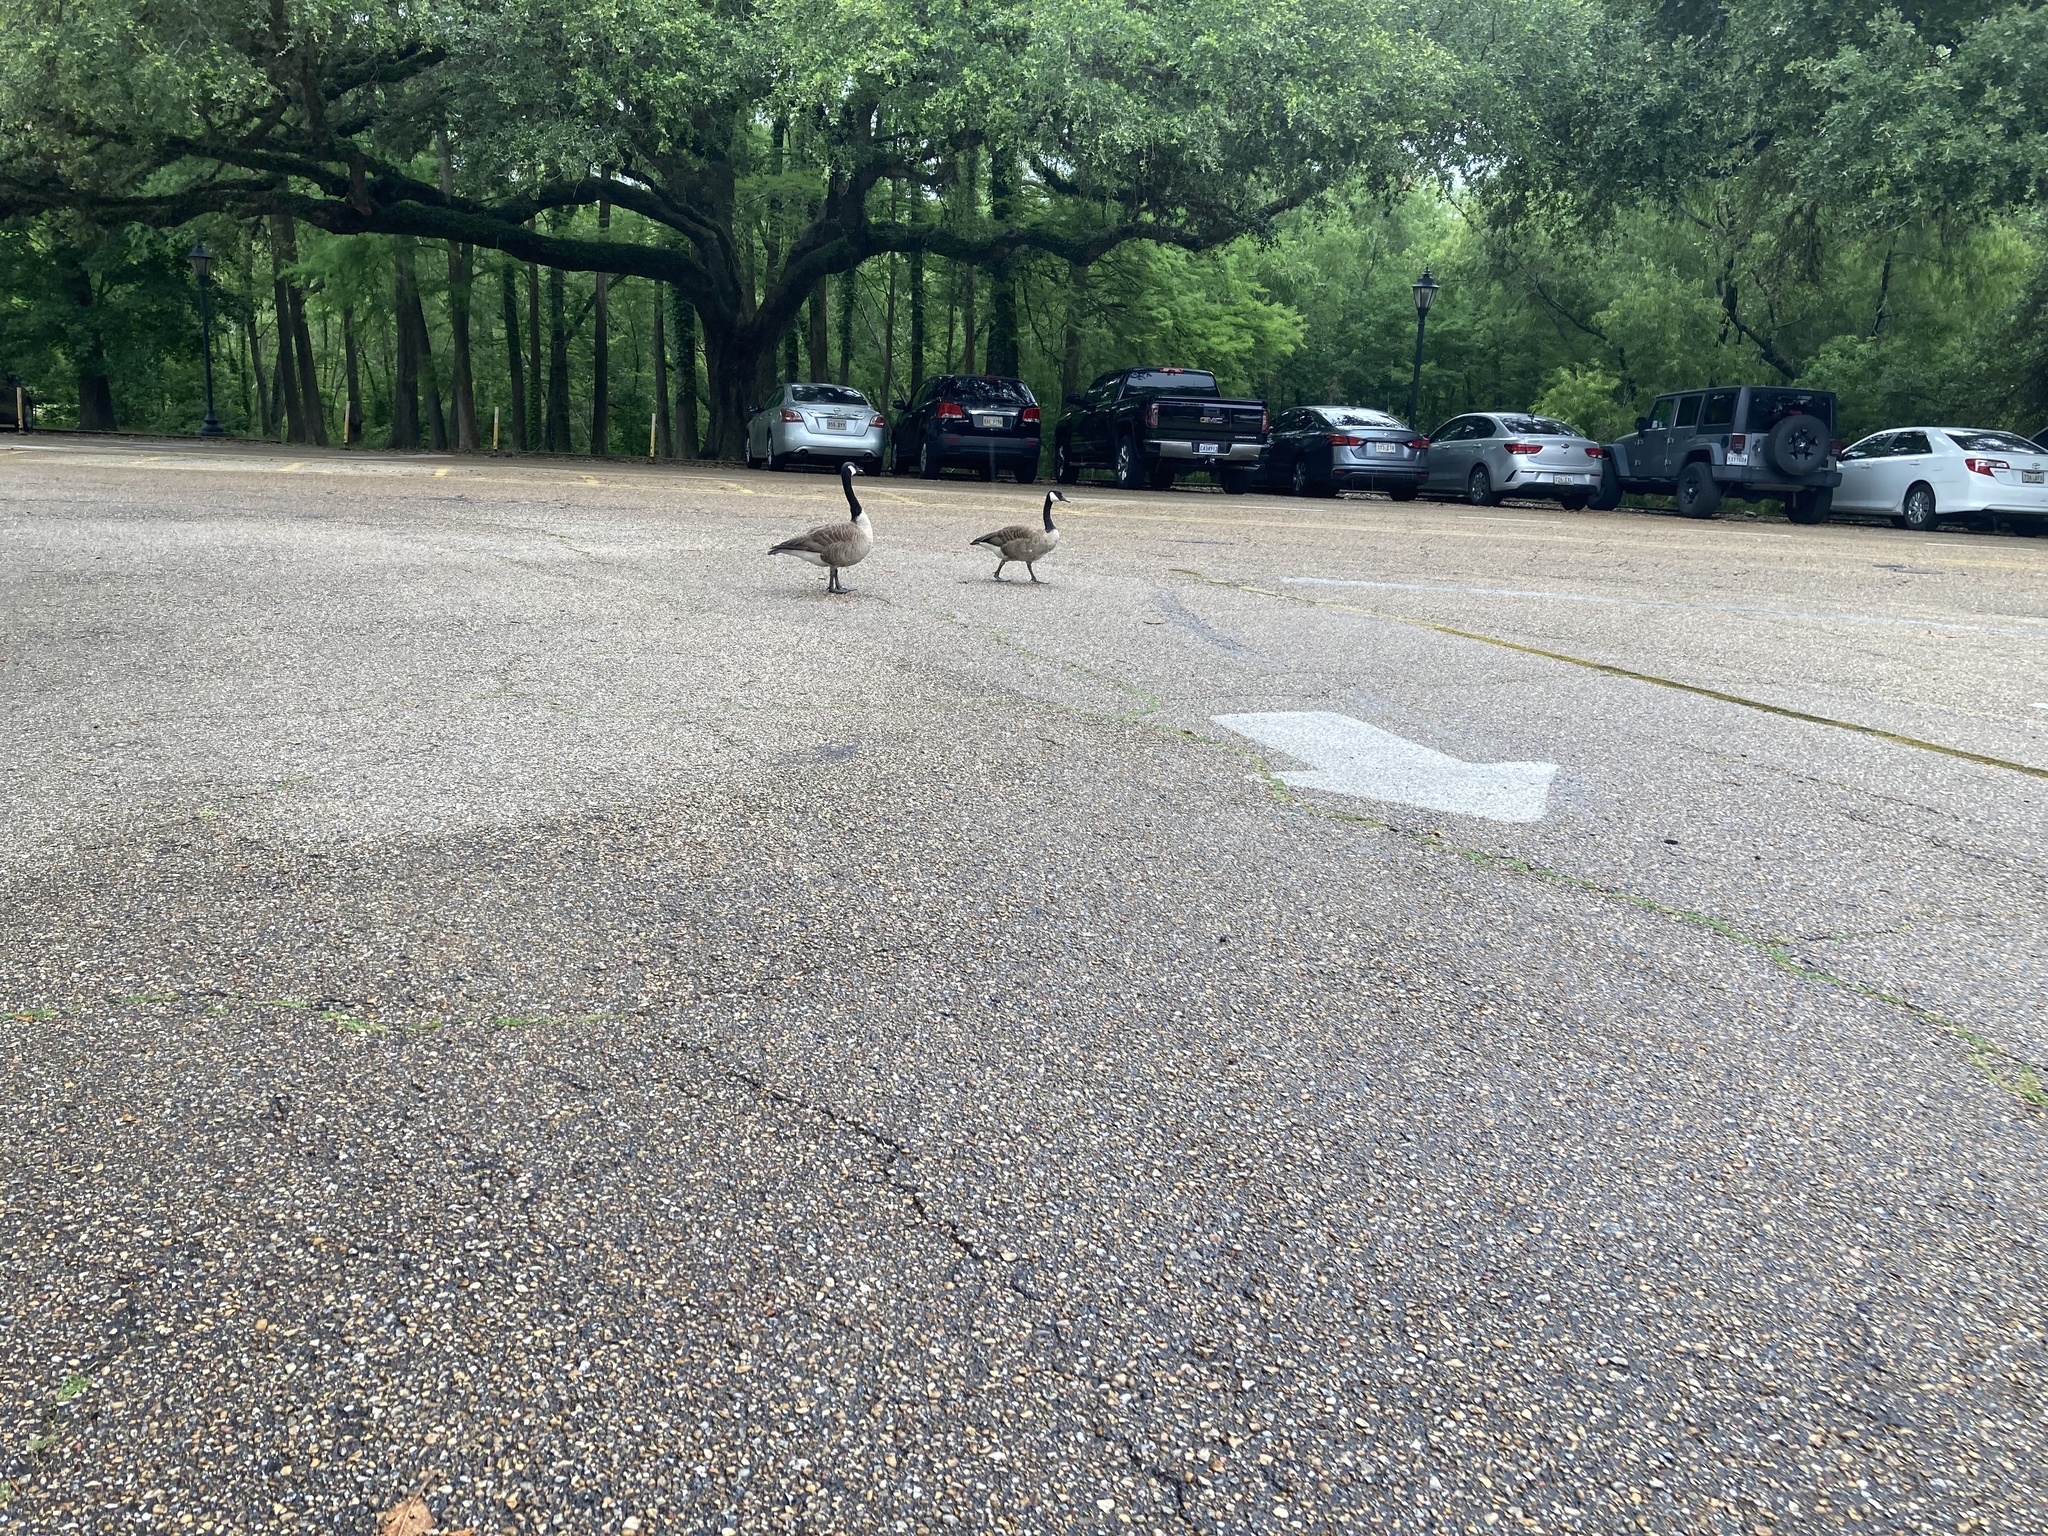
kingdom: Animalia
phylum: Chordata
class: Aves
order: Anseriformes
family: Anatidae
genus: Branta
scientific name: Branta canadensis
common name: Canada goose
